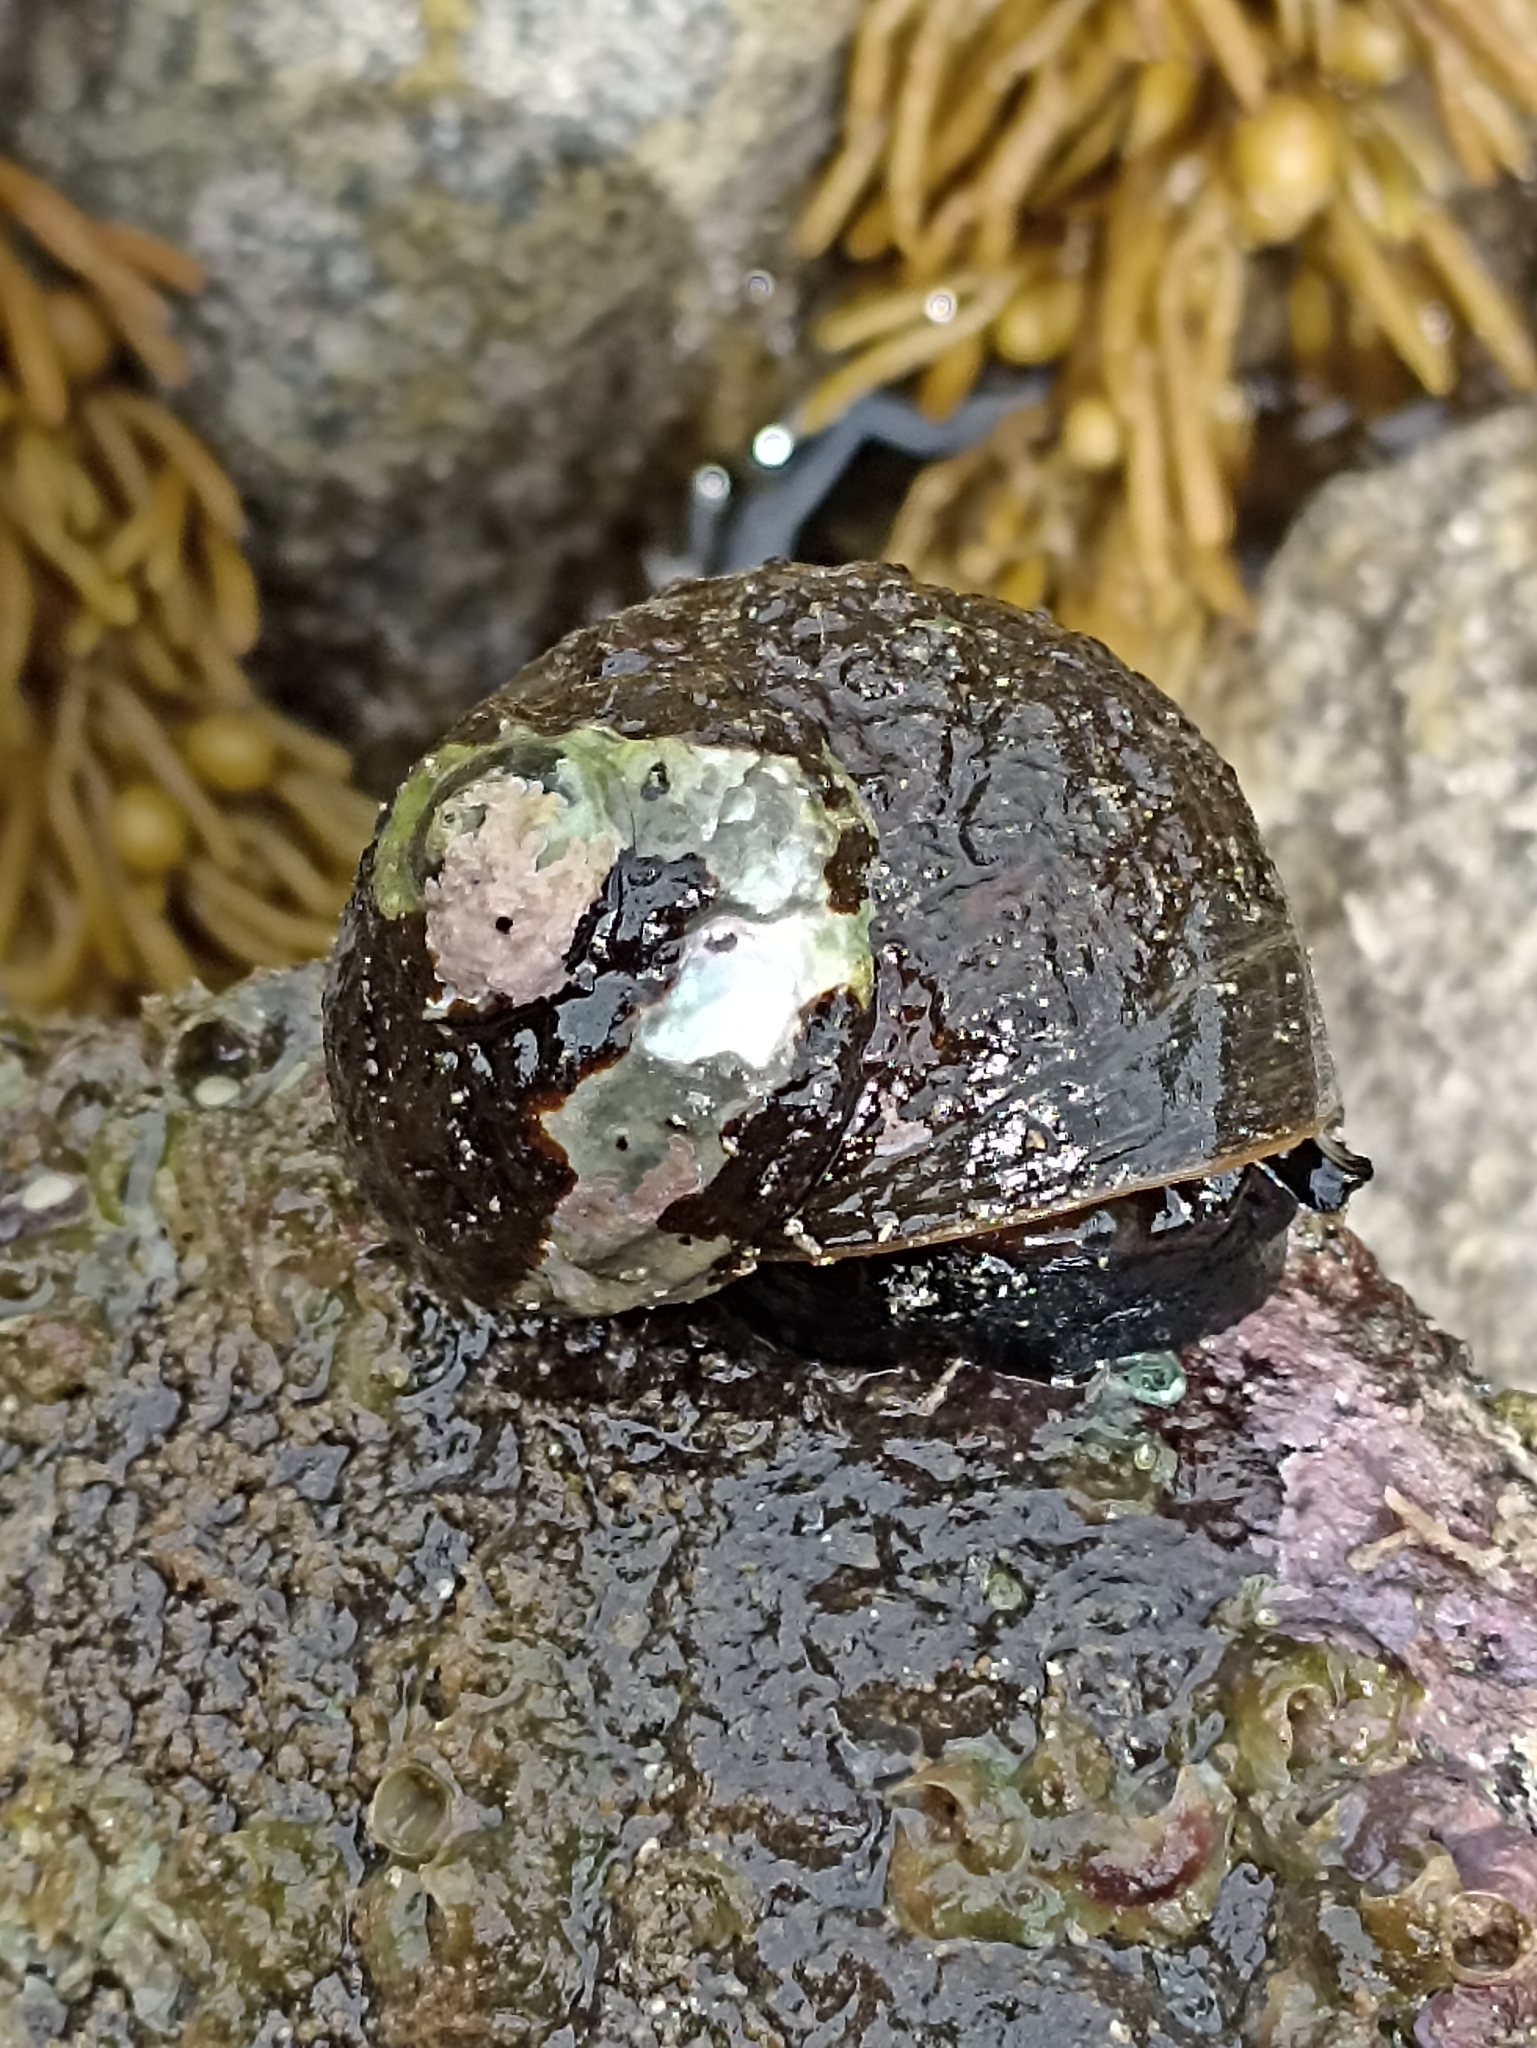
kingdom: Animalia
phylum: Mollusca
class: Gastropoda
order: Trochida
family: Turbinidae
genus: Lunella
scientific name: Lunella smaragda
